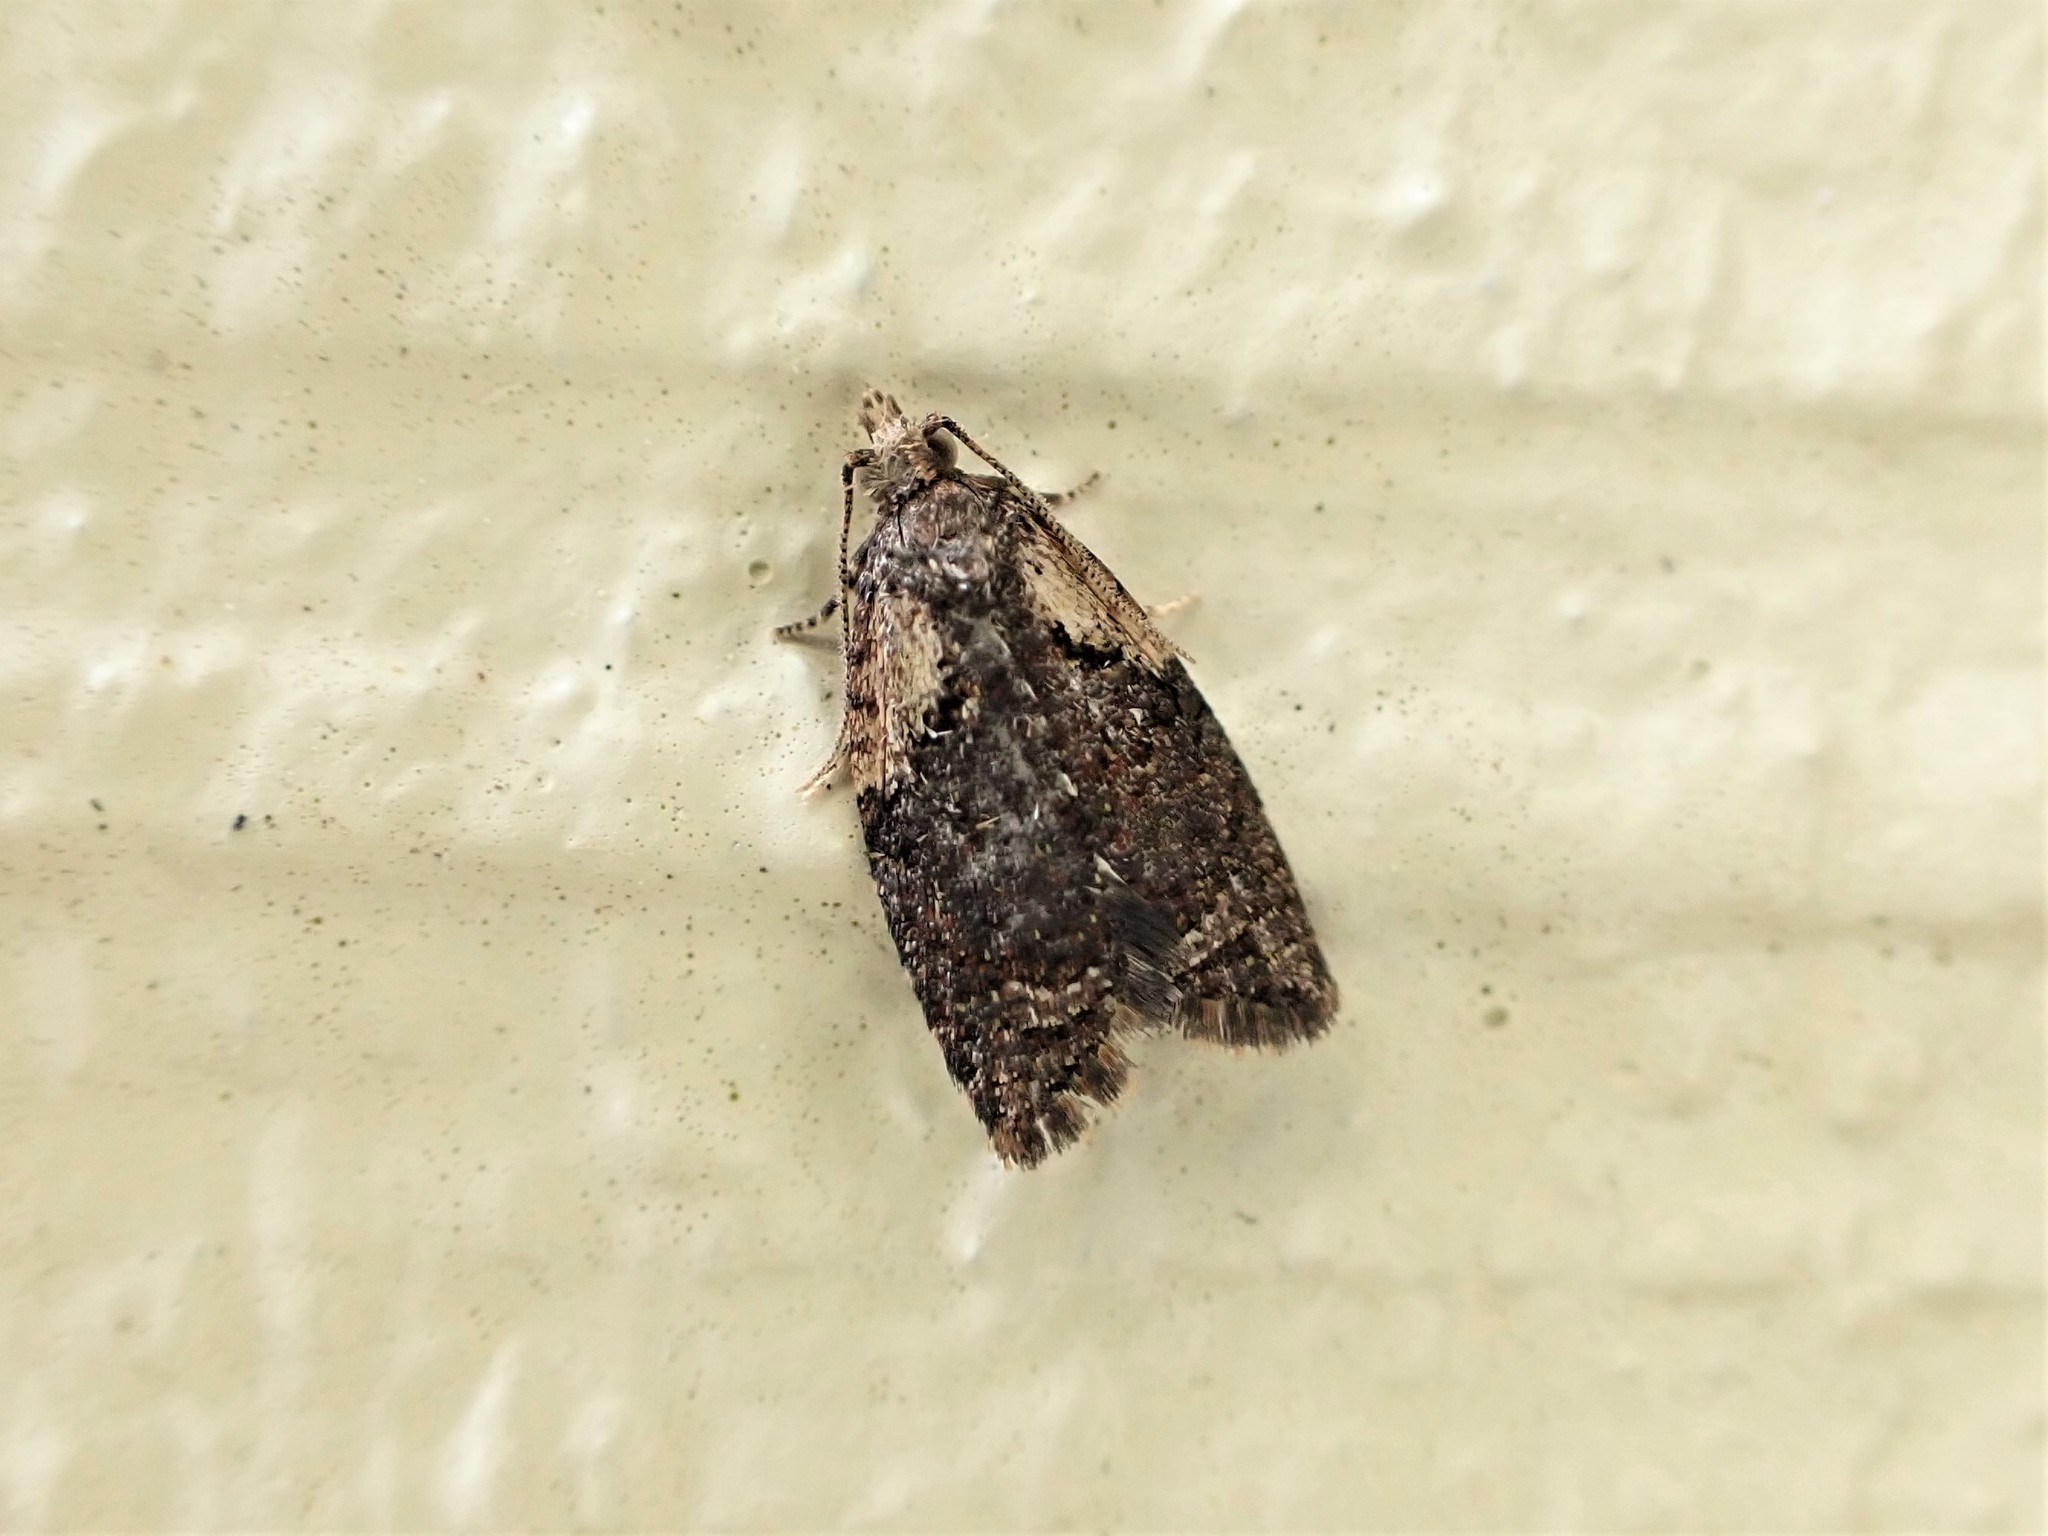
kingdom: Animalia
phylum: Arthropoda
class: Insecta
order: Lepidoptera
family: Tortricidae
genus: Capua
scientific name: Capua intractana
